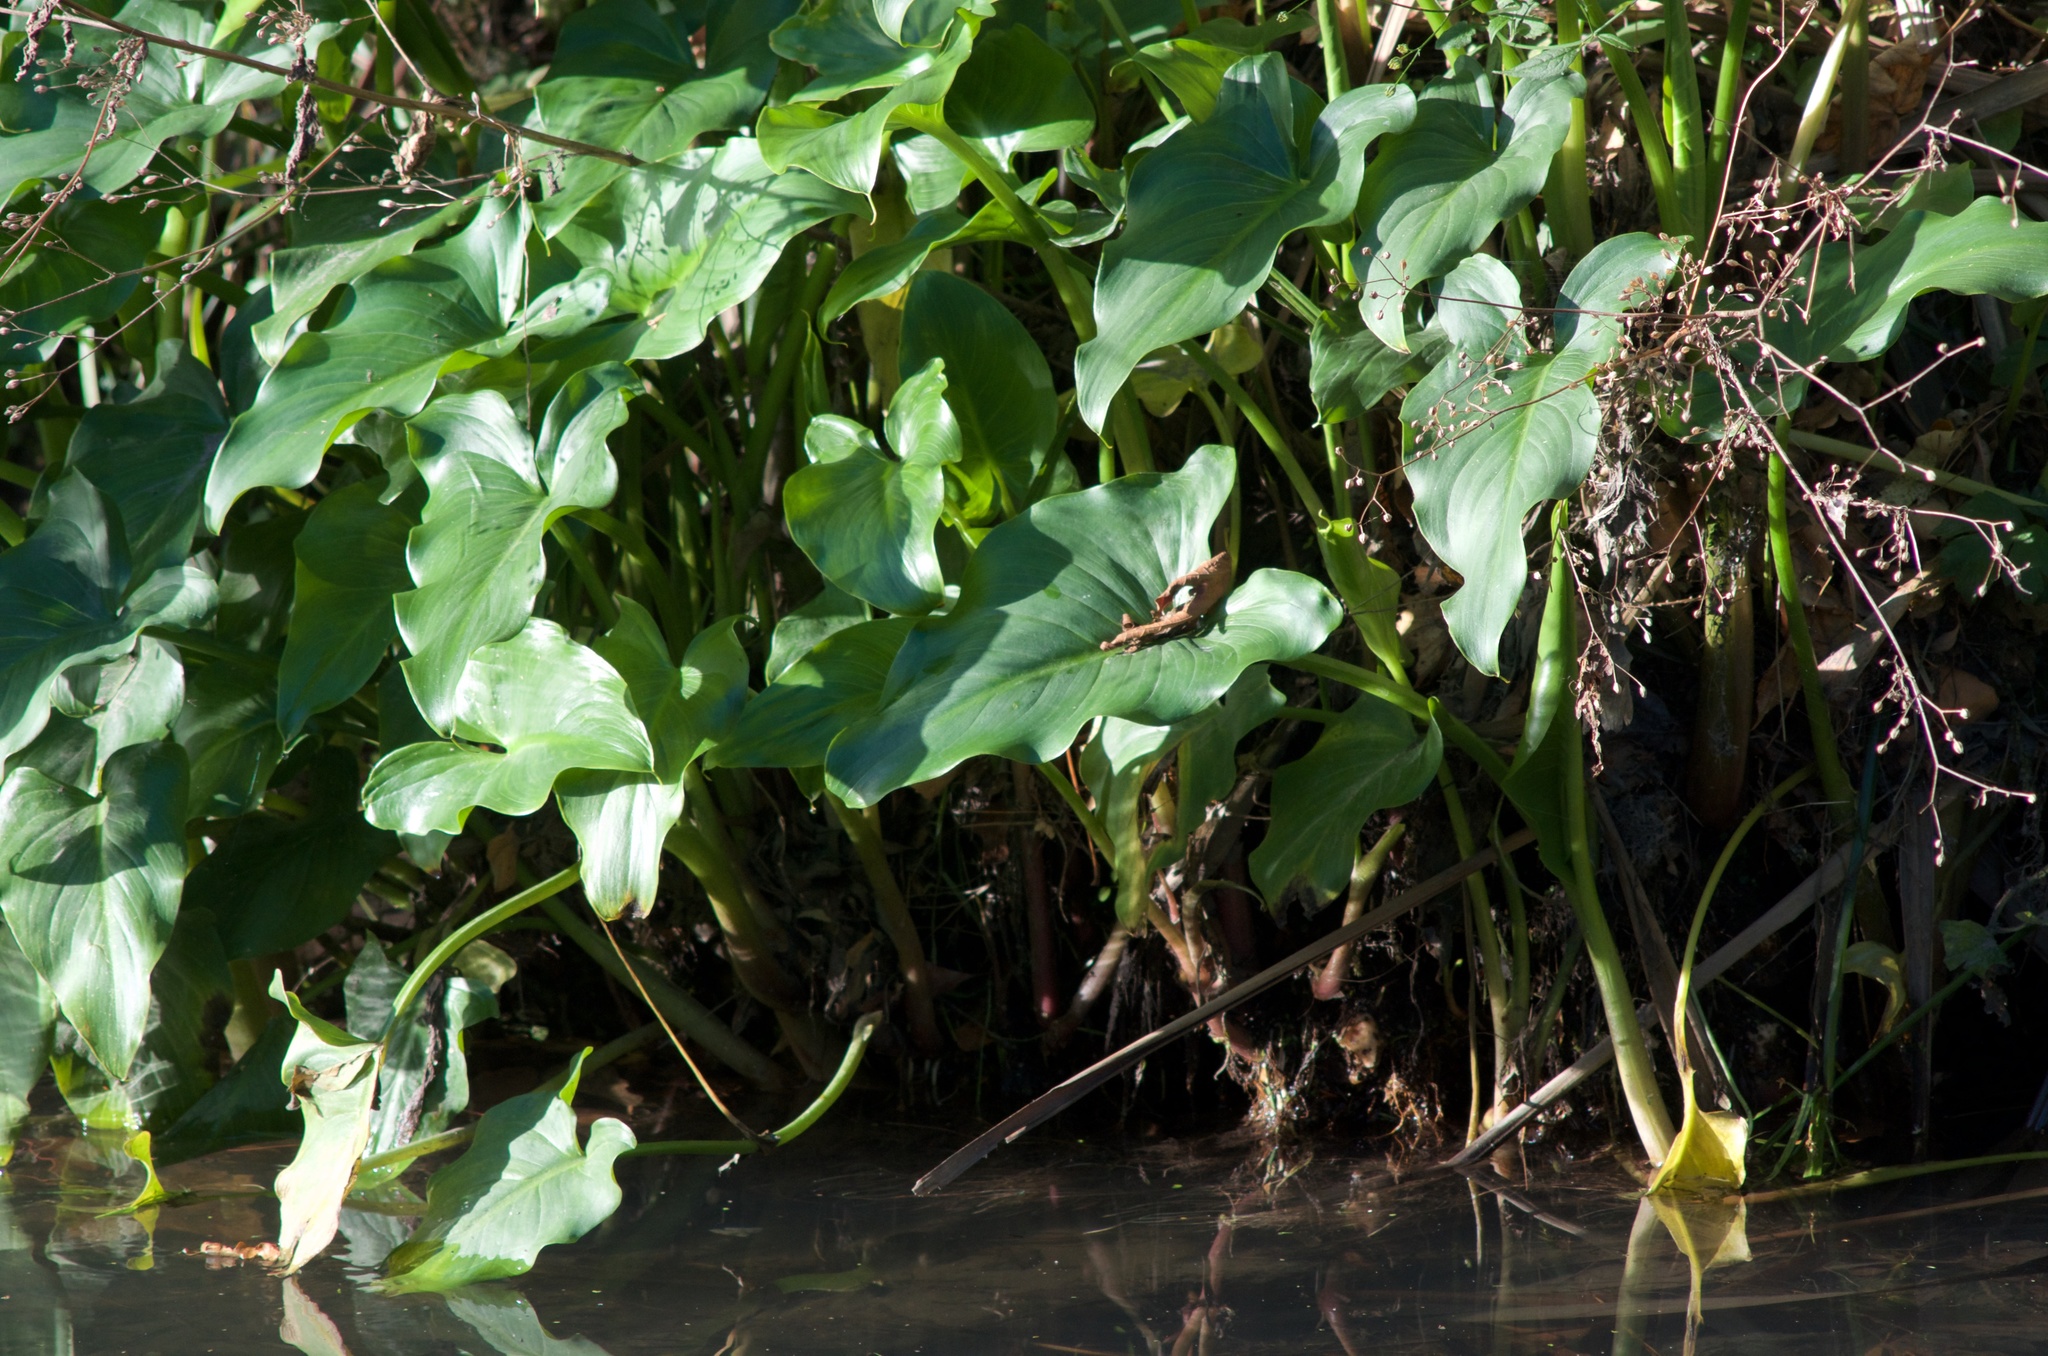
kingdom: Plantae
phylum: Tracheophyta
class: Liliopsida
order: Alismatales
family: Araceae
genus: Zantedeschia
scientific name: Zantedeschia aethiopica
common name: Altar-lily
